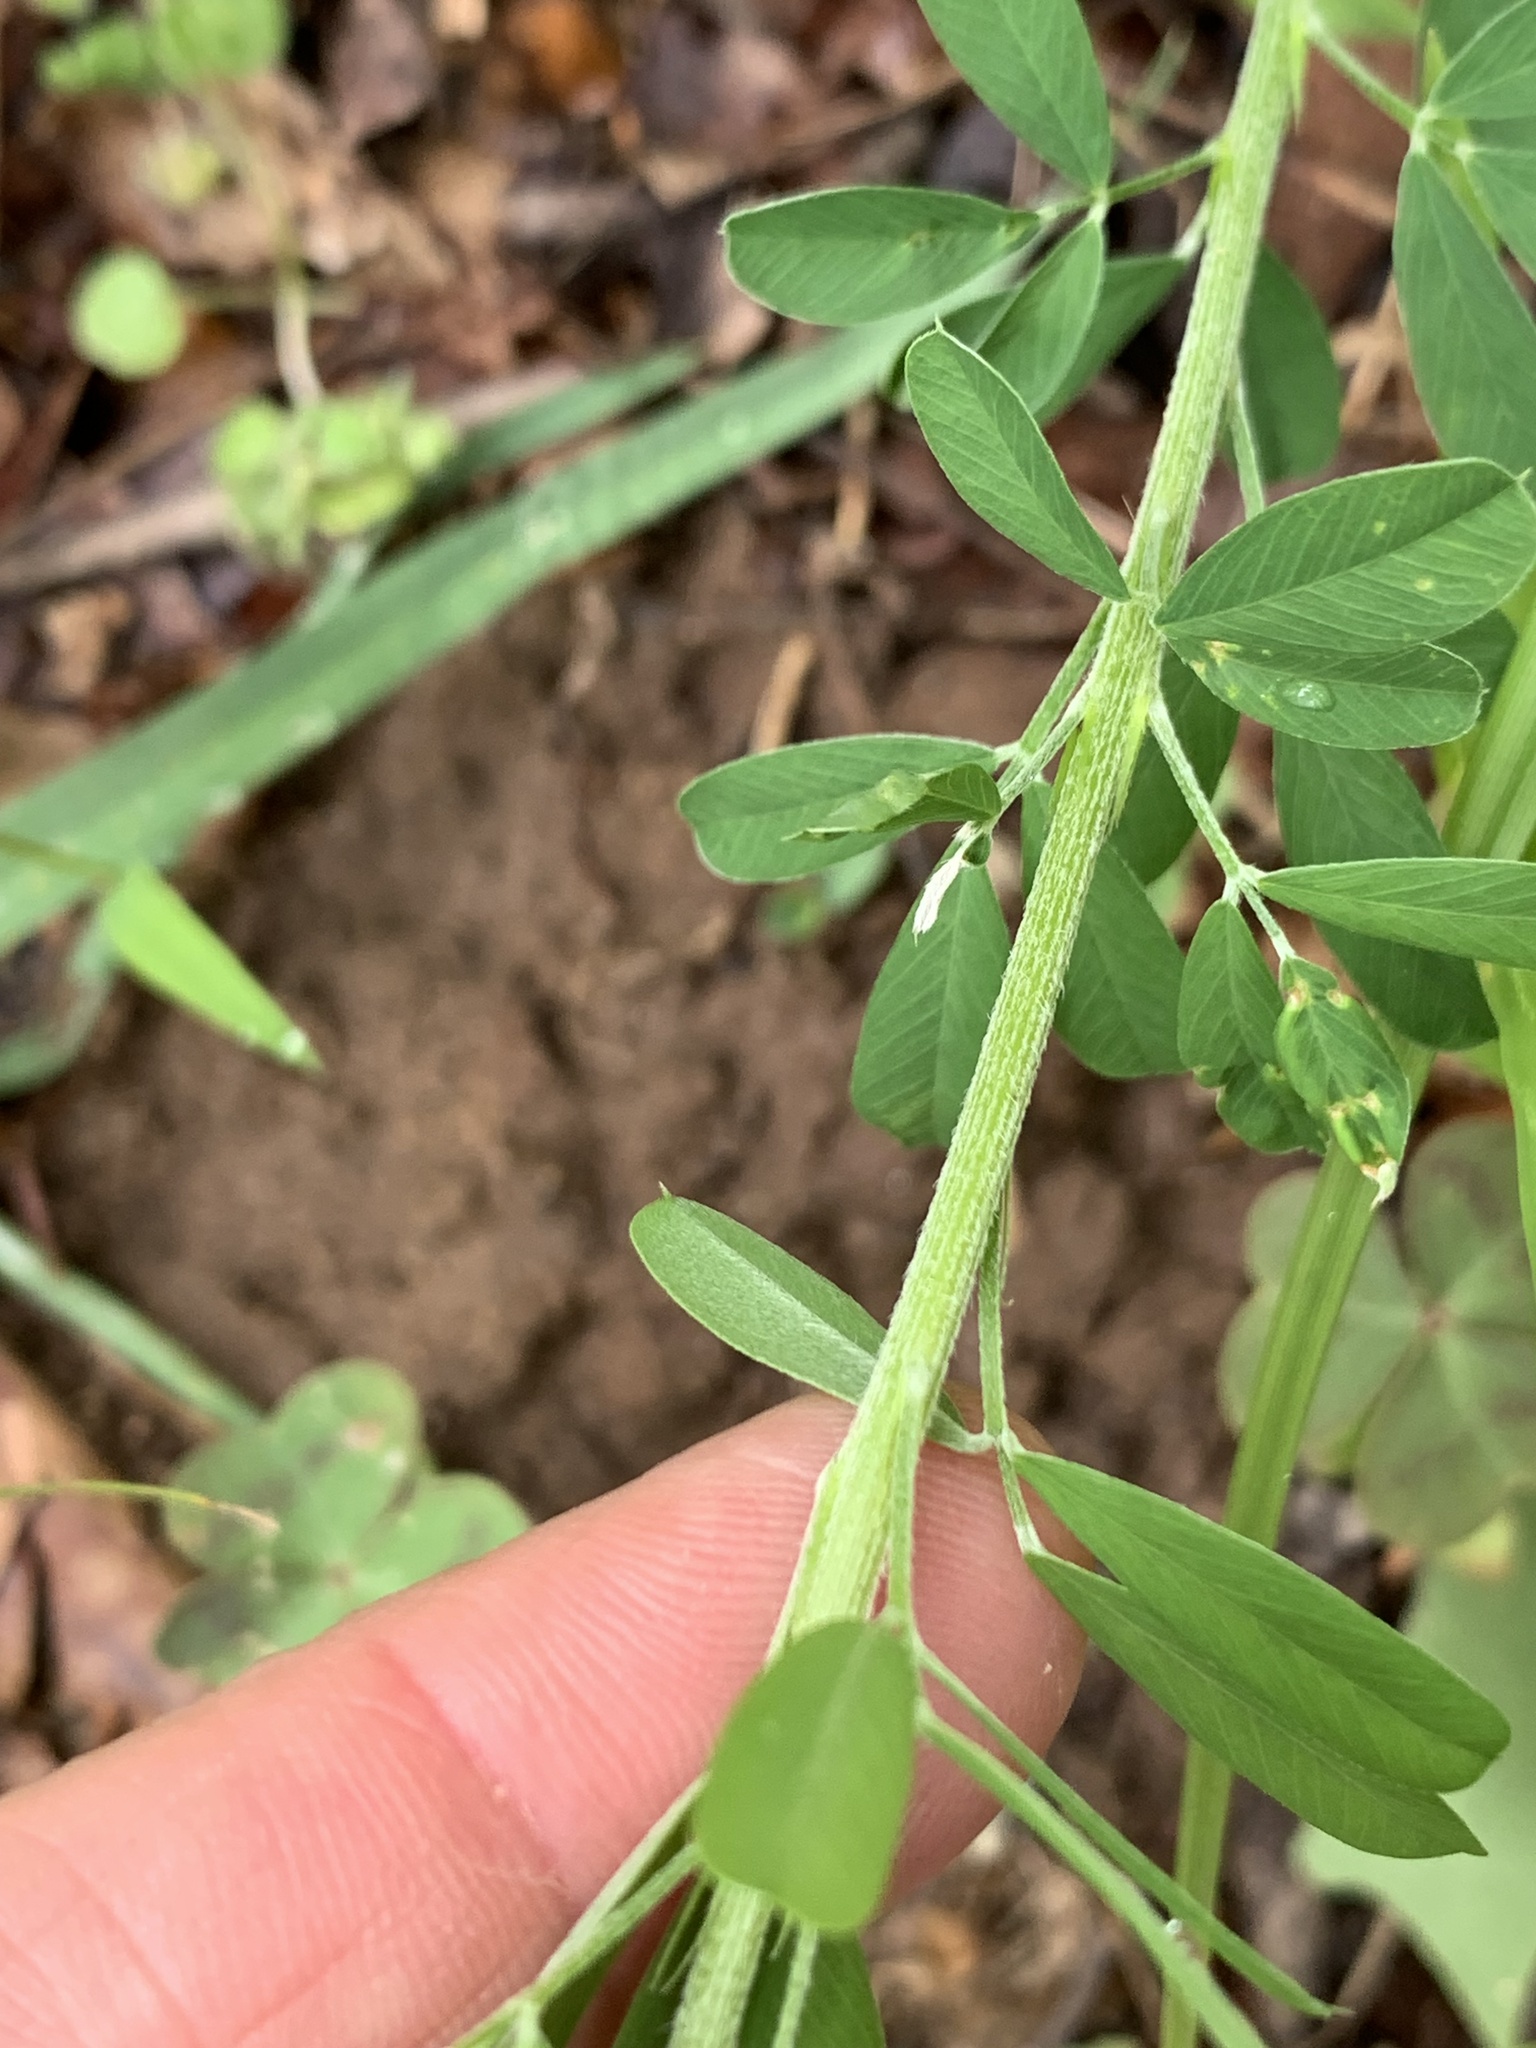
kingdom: Plantae
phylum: Tracheophyta
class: Magnoliopsida
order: Fabales
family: Fabaceae
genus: Lespedeza
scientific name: Lespedeza cuneata
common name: Chinese bush-clover
